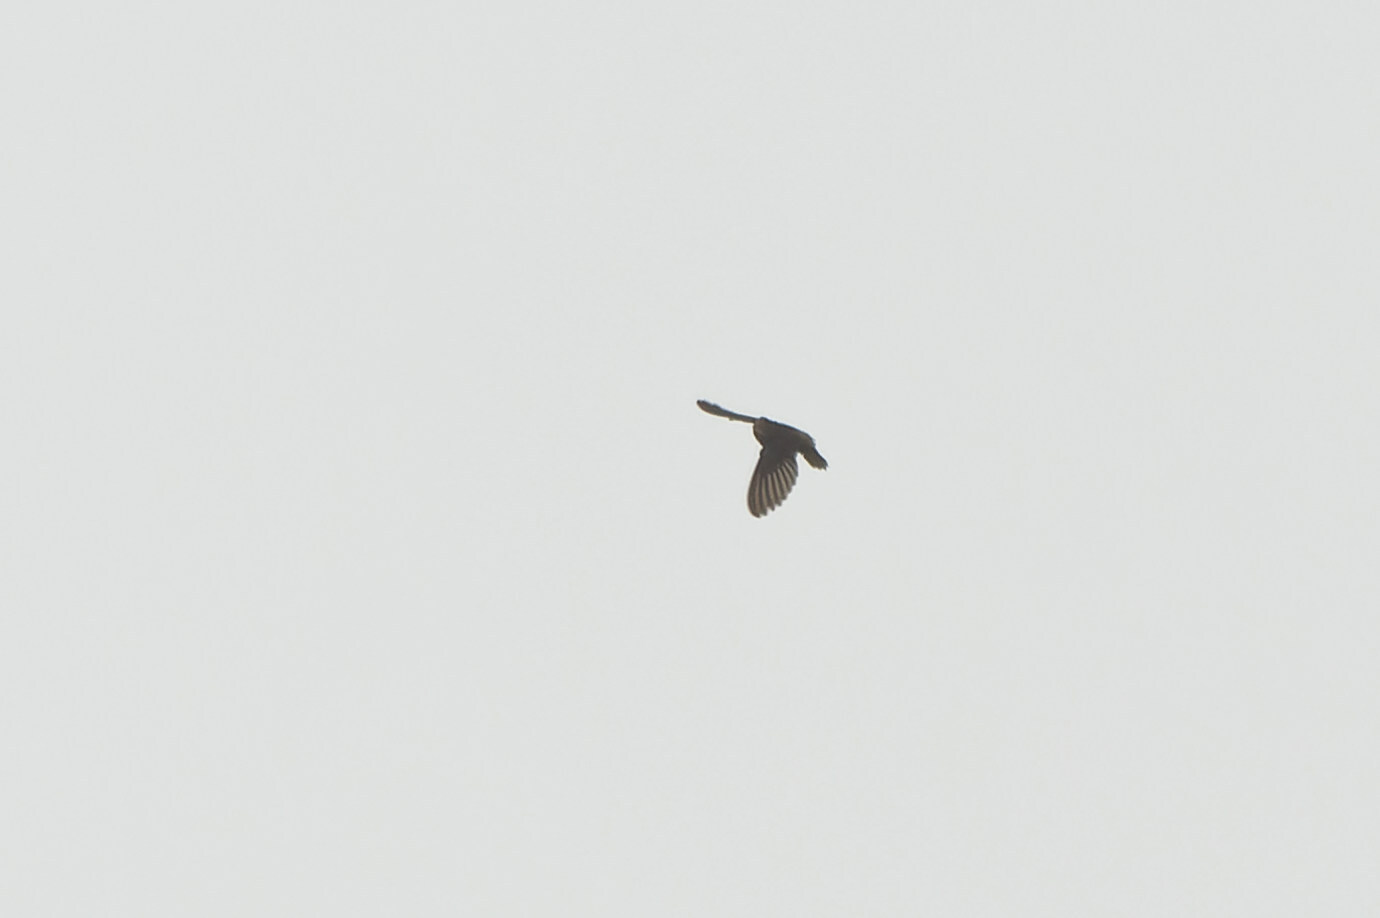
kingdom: Animalia
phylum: Chordata
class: Aves
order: Apodiformes
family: Apodidae
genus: Chaetura
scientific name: Chaetura martinica
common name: Lesser antillean swift
